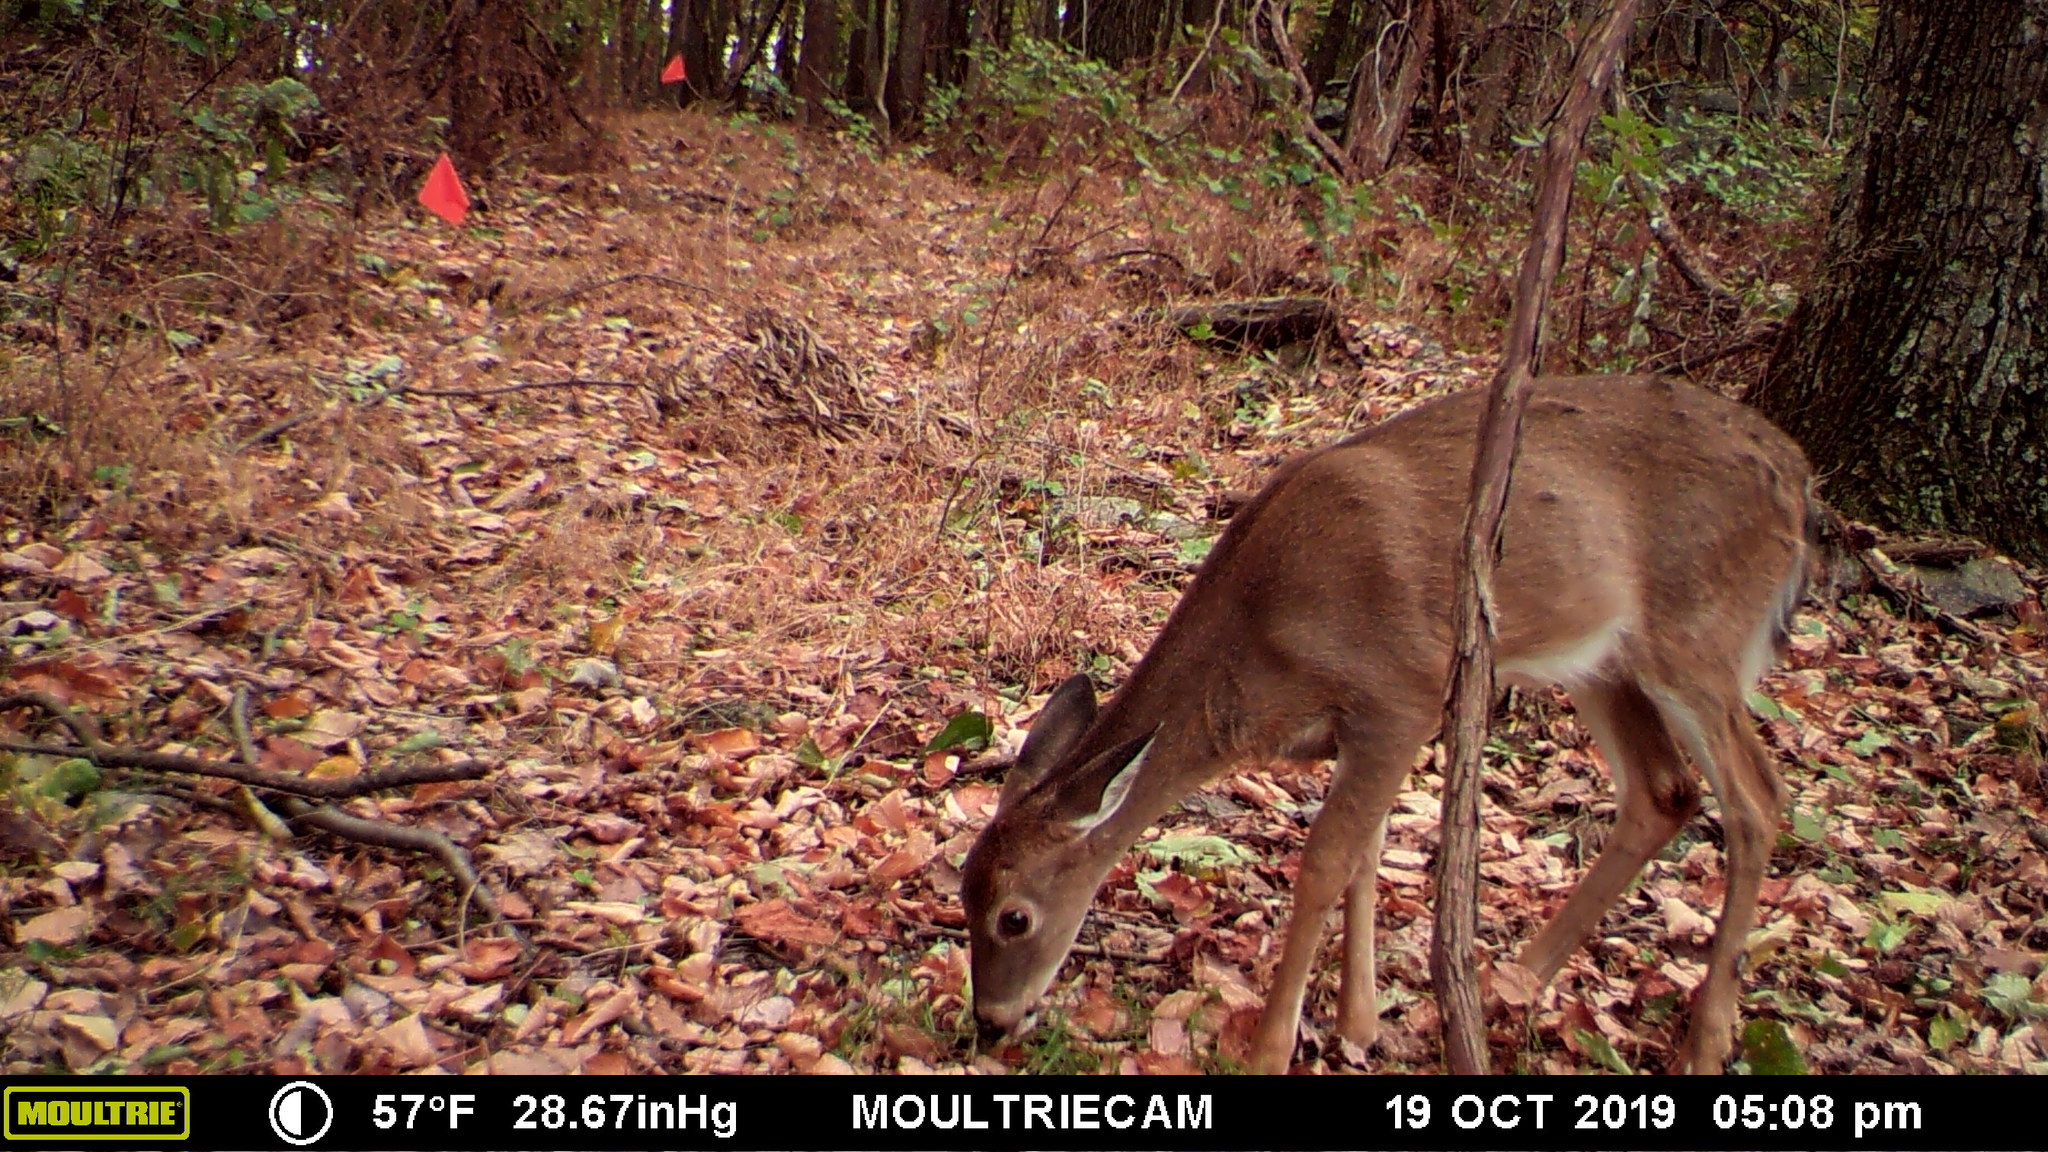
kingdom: Animalia
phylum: Chordata
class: Mammalia
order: Artiodactyla
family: Cervidae
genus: Odocoileus
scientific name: Odocoileus virginianus
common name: White-tailed deer
